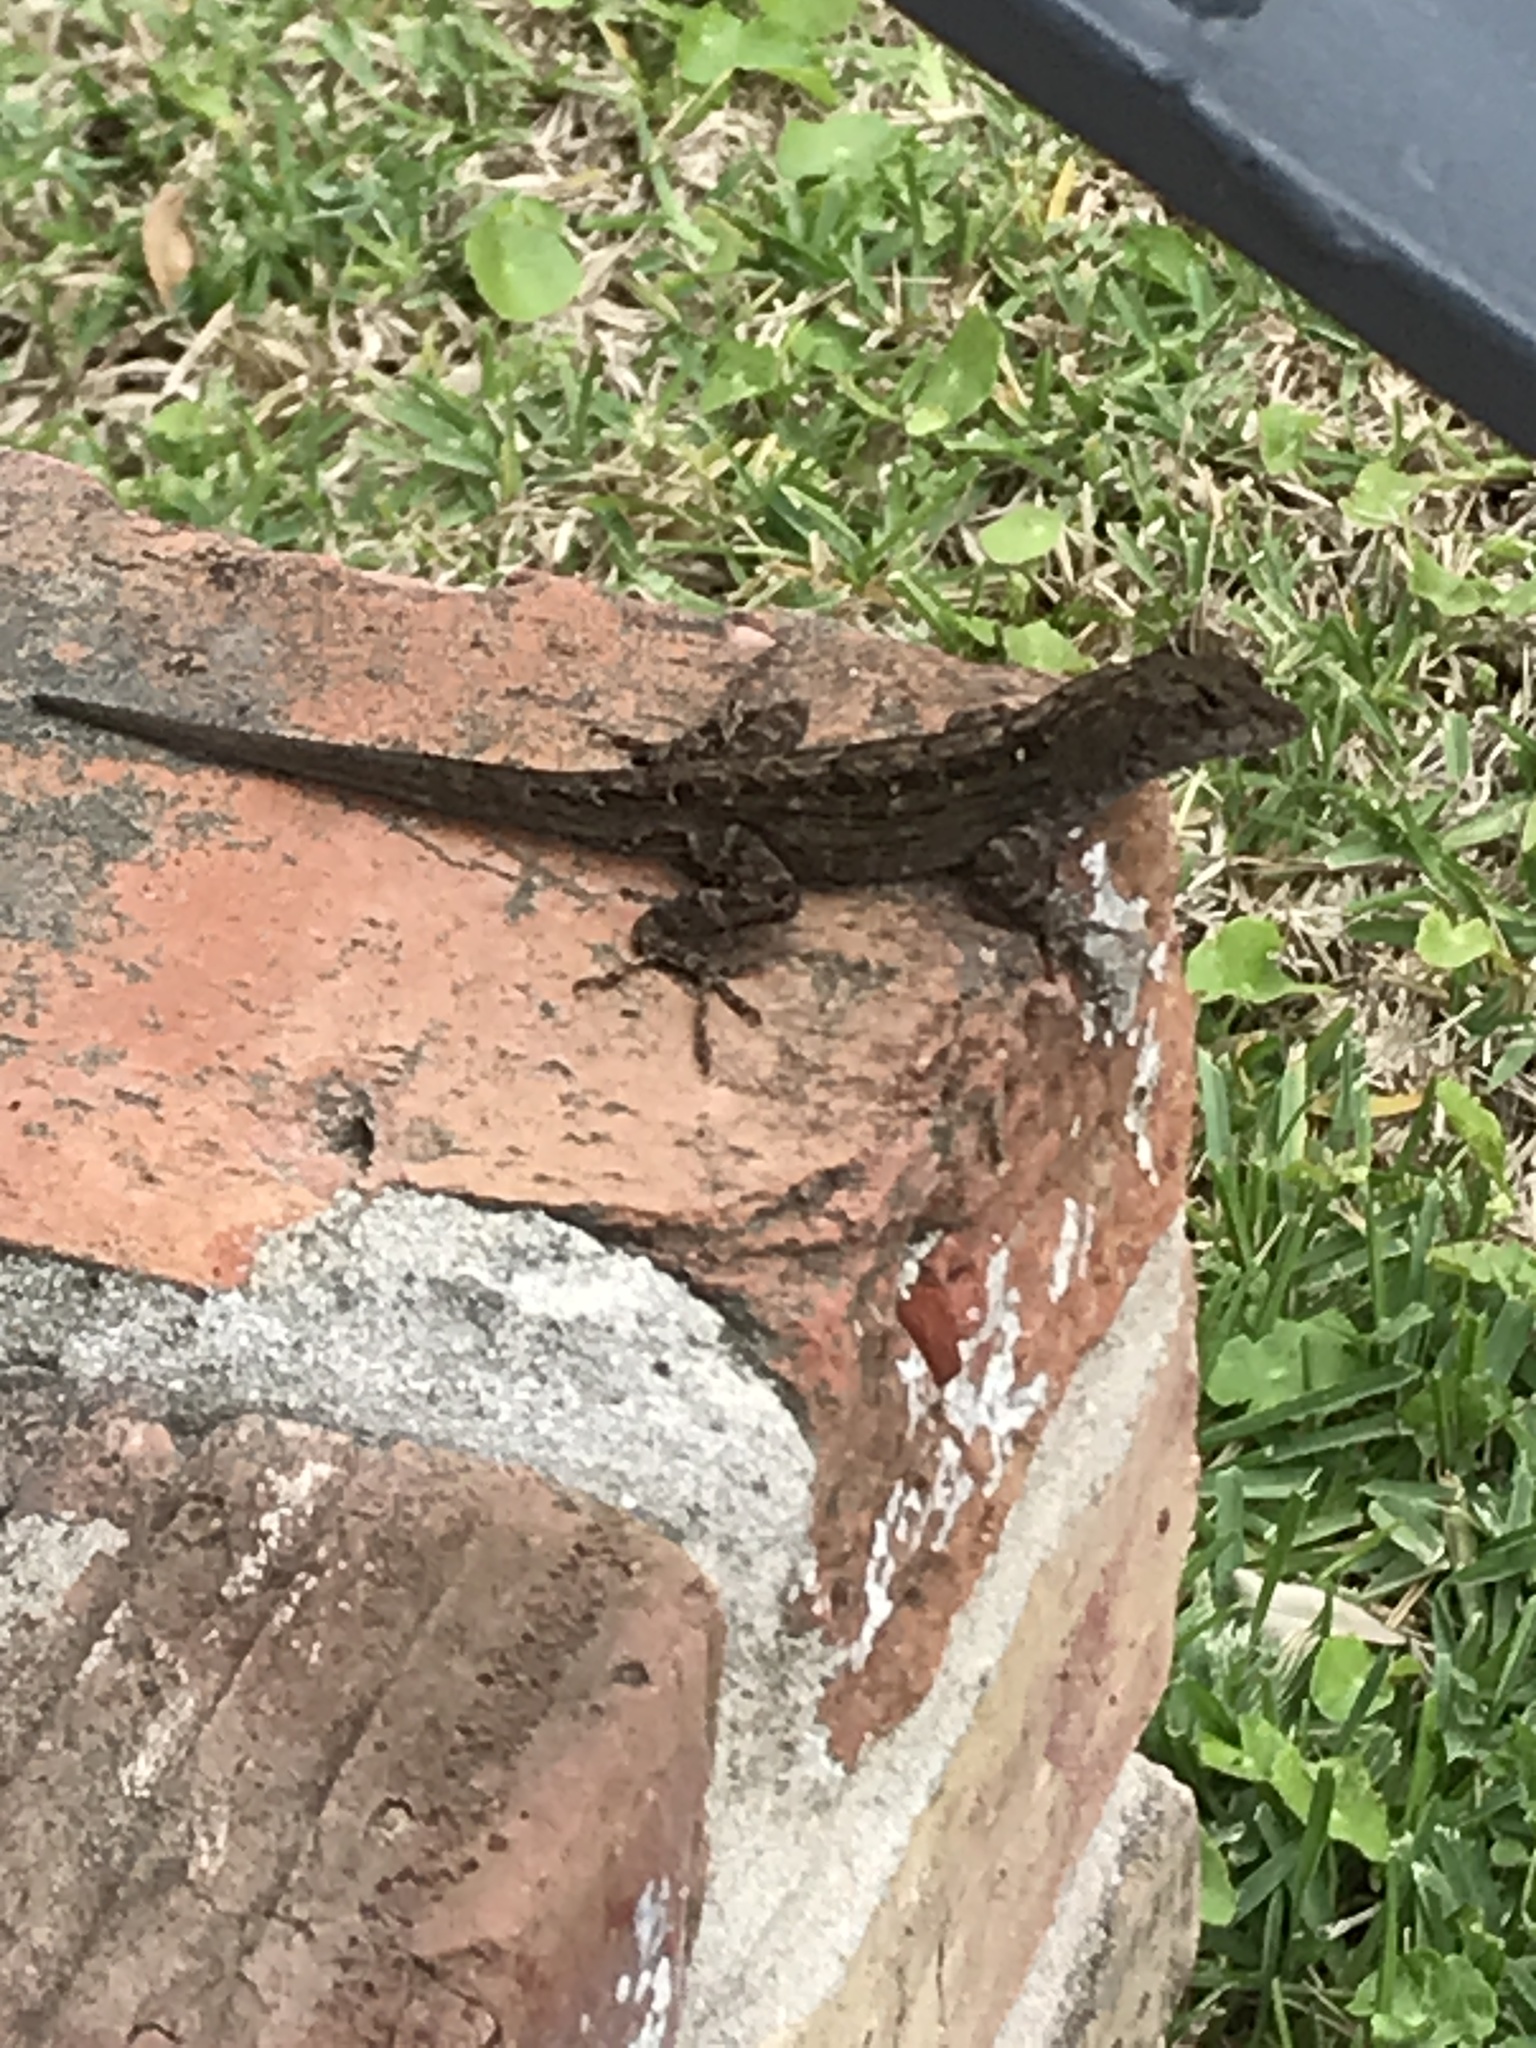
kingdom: Animalia
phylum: Chordata
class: Squamata
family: Dactyloidae
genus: Anolis
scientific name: Anolis sagrei
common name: Brown anole
